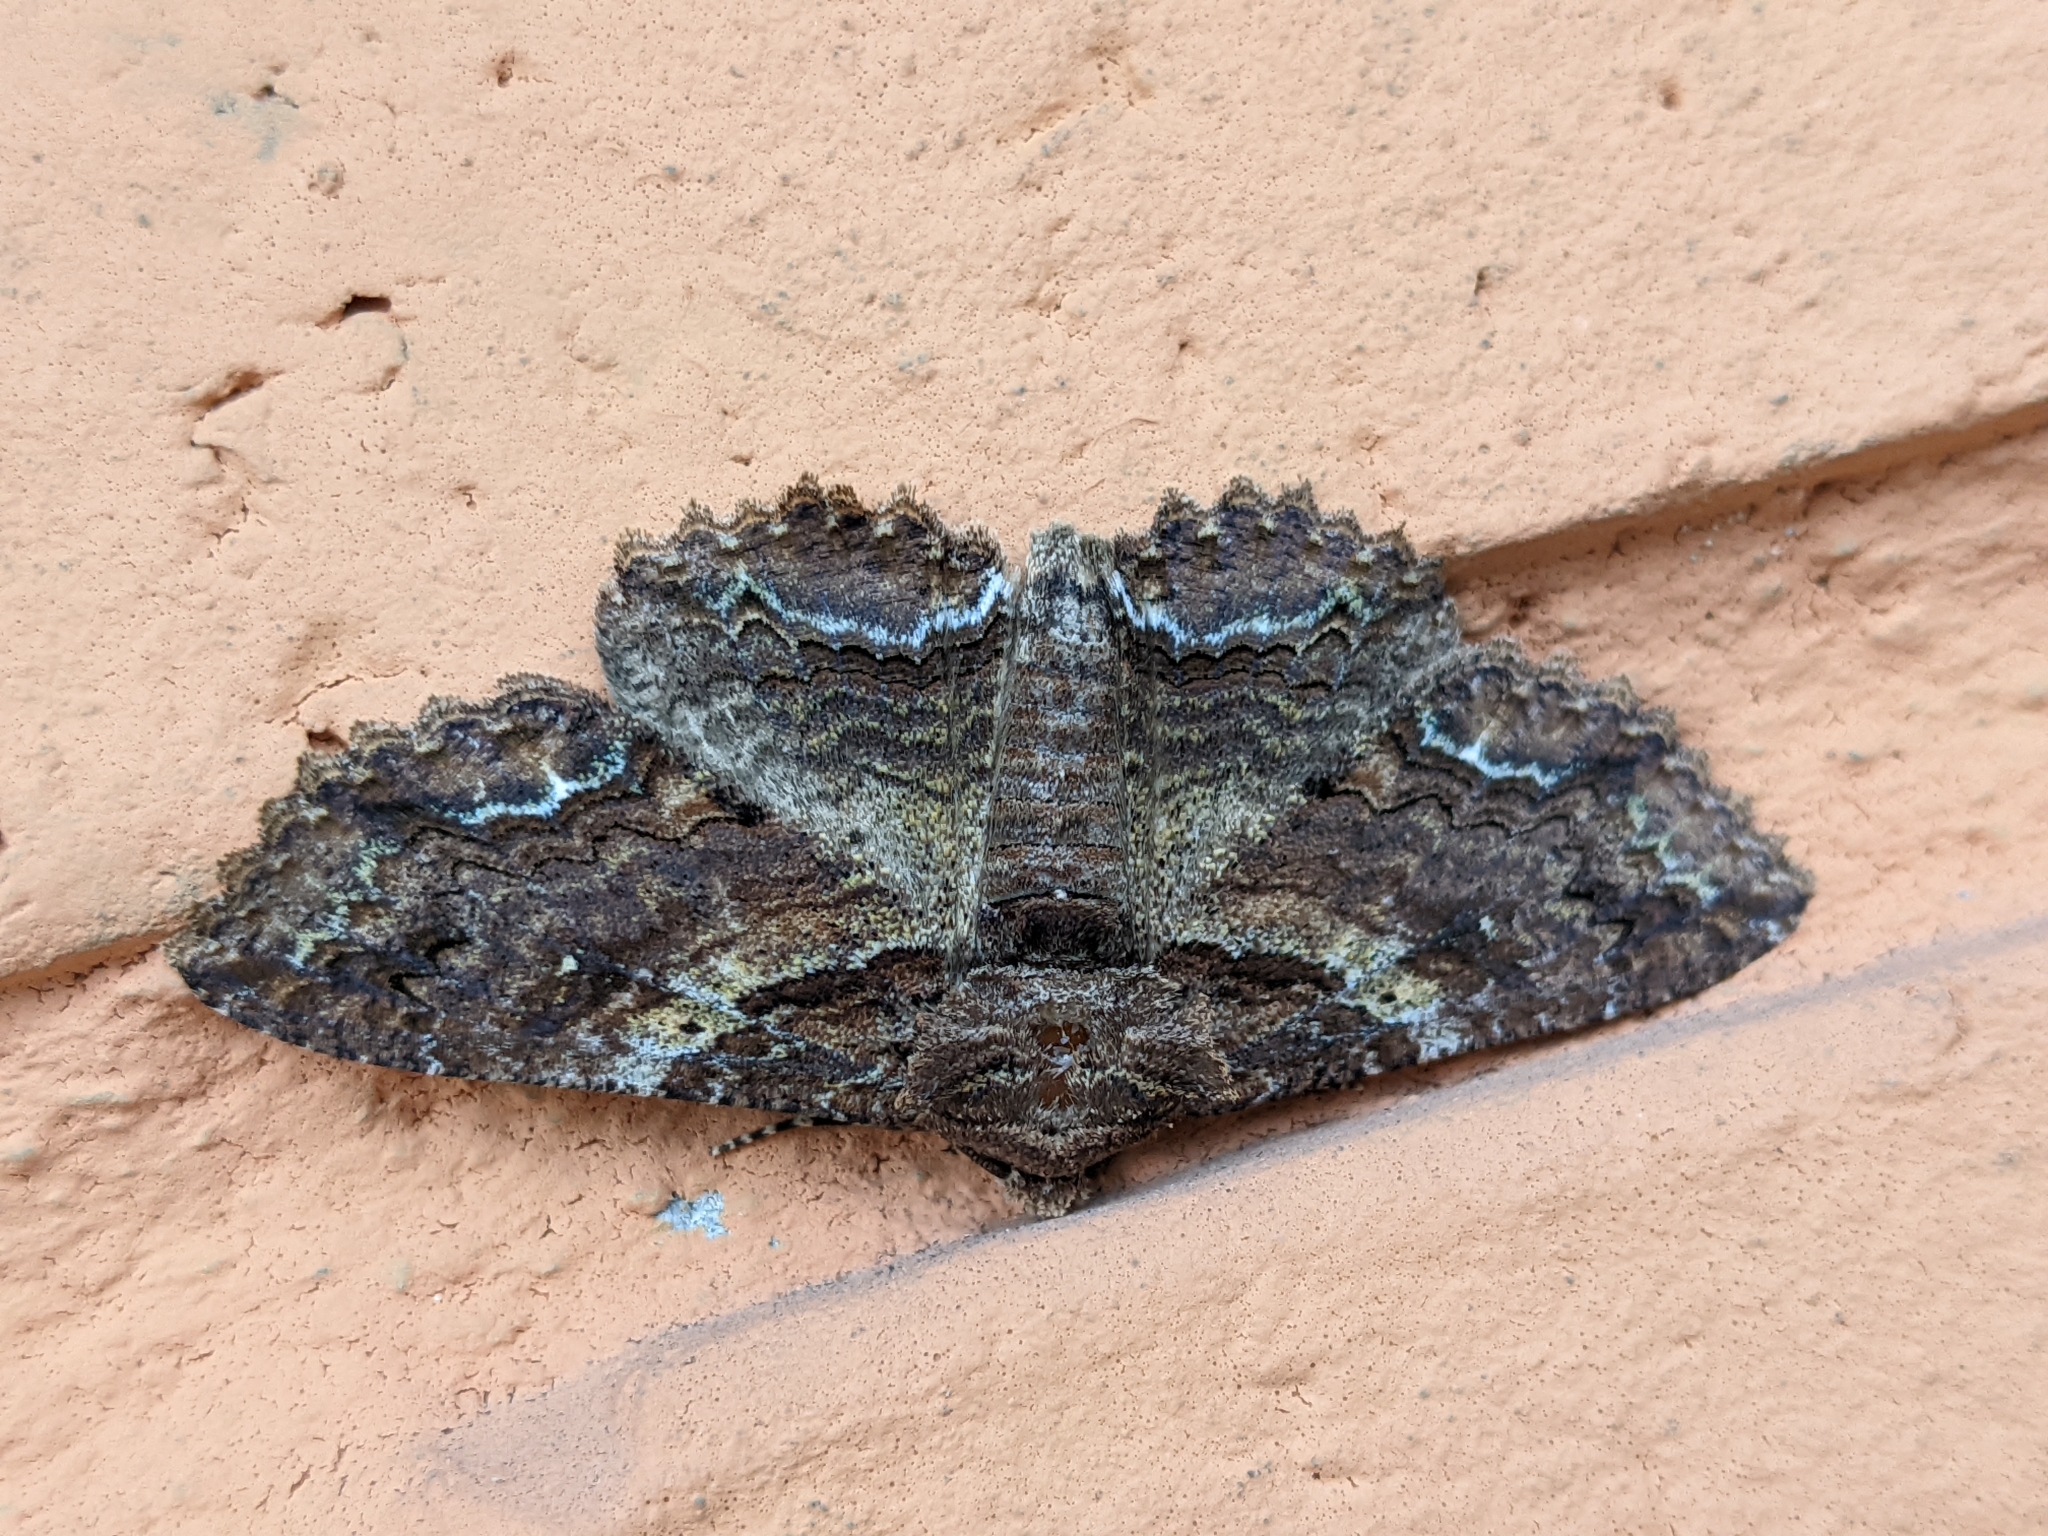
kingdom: Animalia
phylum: Arthropoda
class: Insecta
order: Lepidoptera
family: Erebidae
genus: Zale
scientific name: Zale lunata
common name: Lunate zale moth
